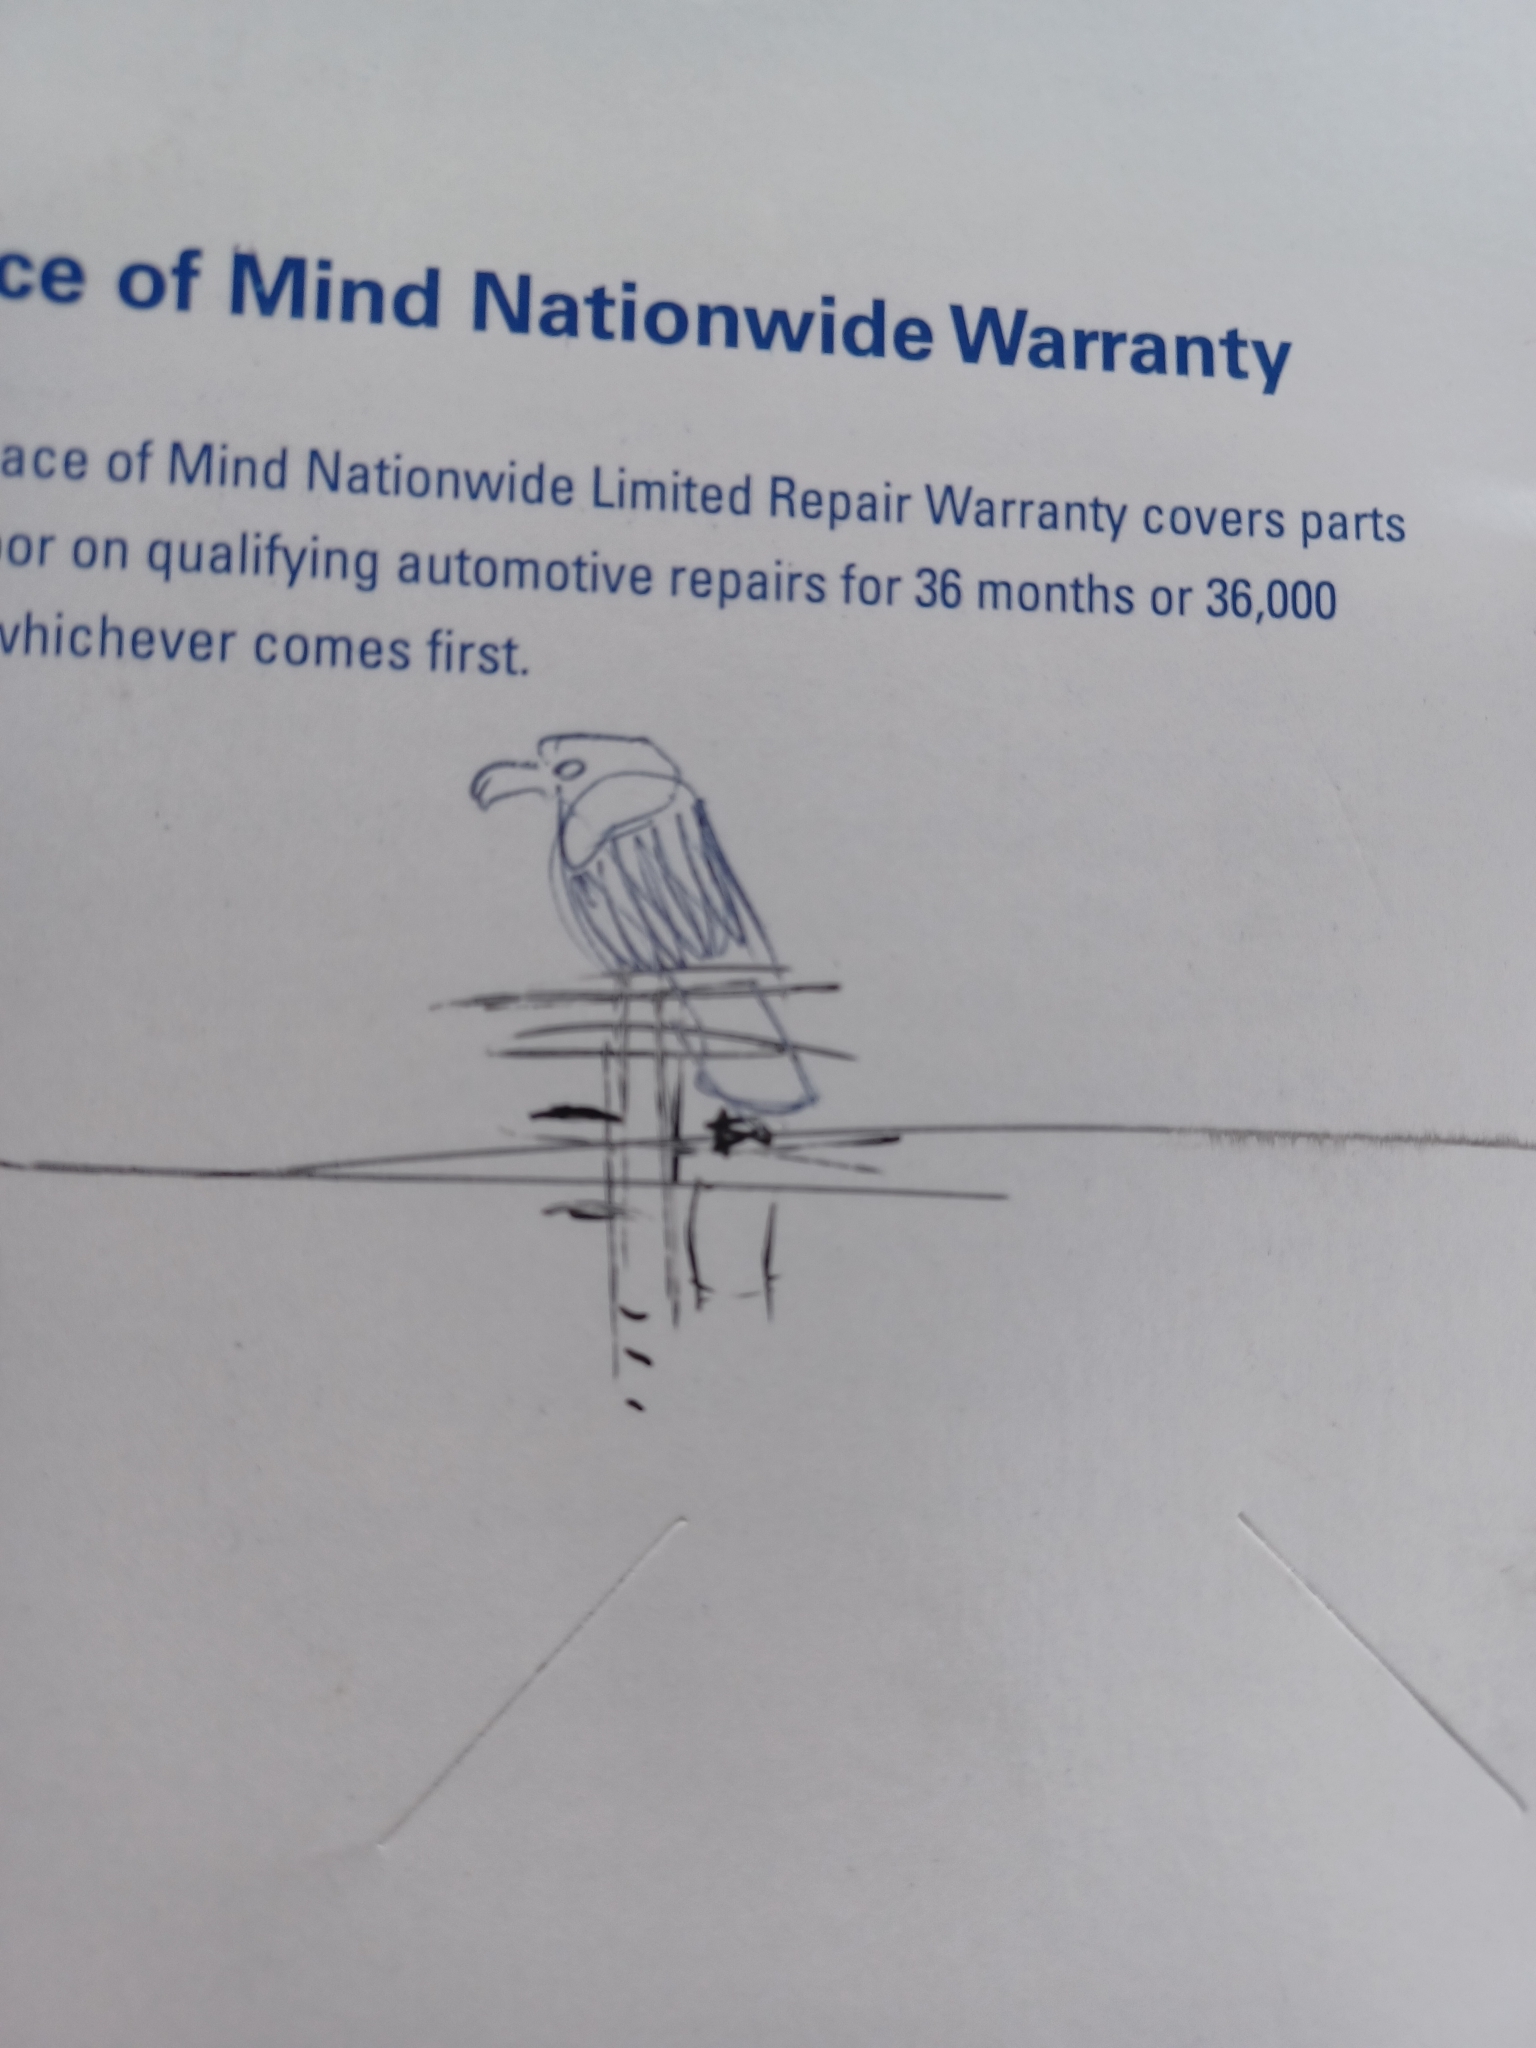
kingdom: Animalia
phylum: Chordata
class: Aves
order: Accipitriformes
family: Accipitridae
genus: Haliaeetus
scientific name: Haliaeetus leucocephalus
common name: Bald eagle
